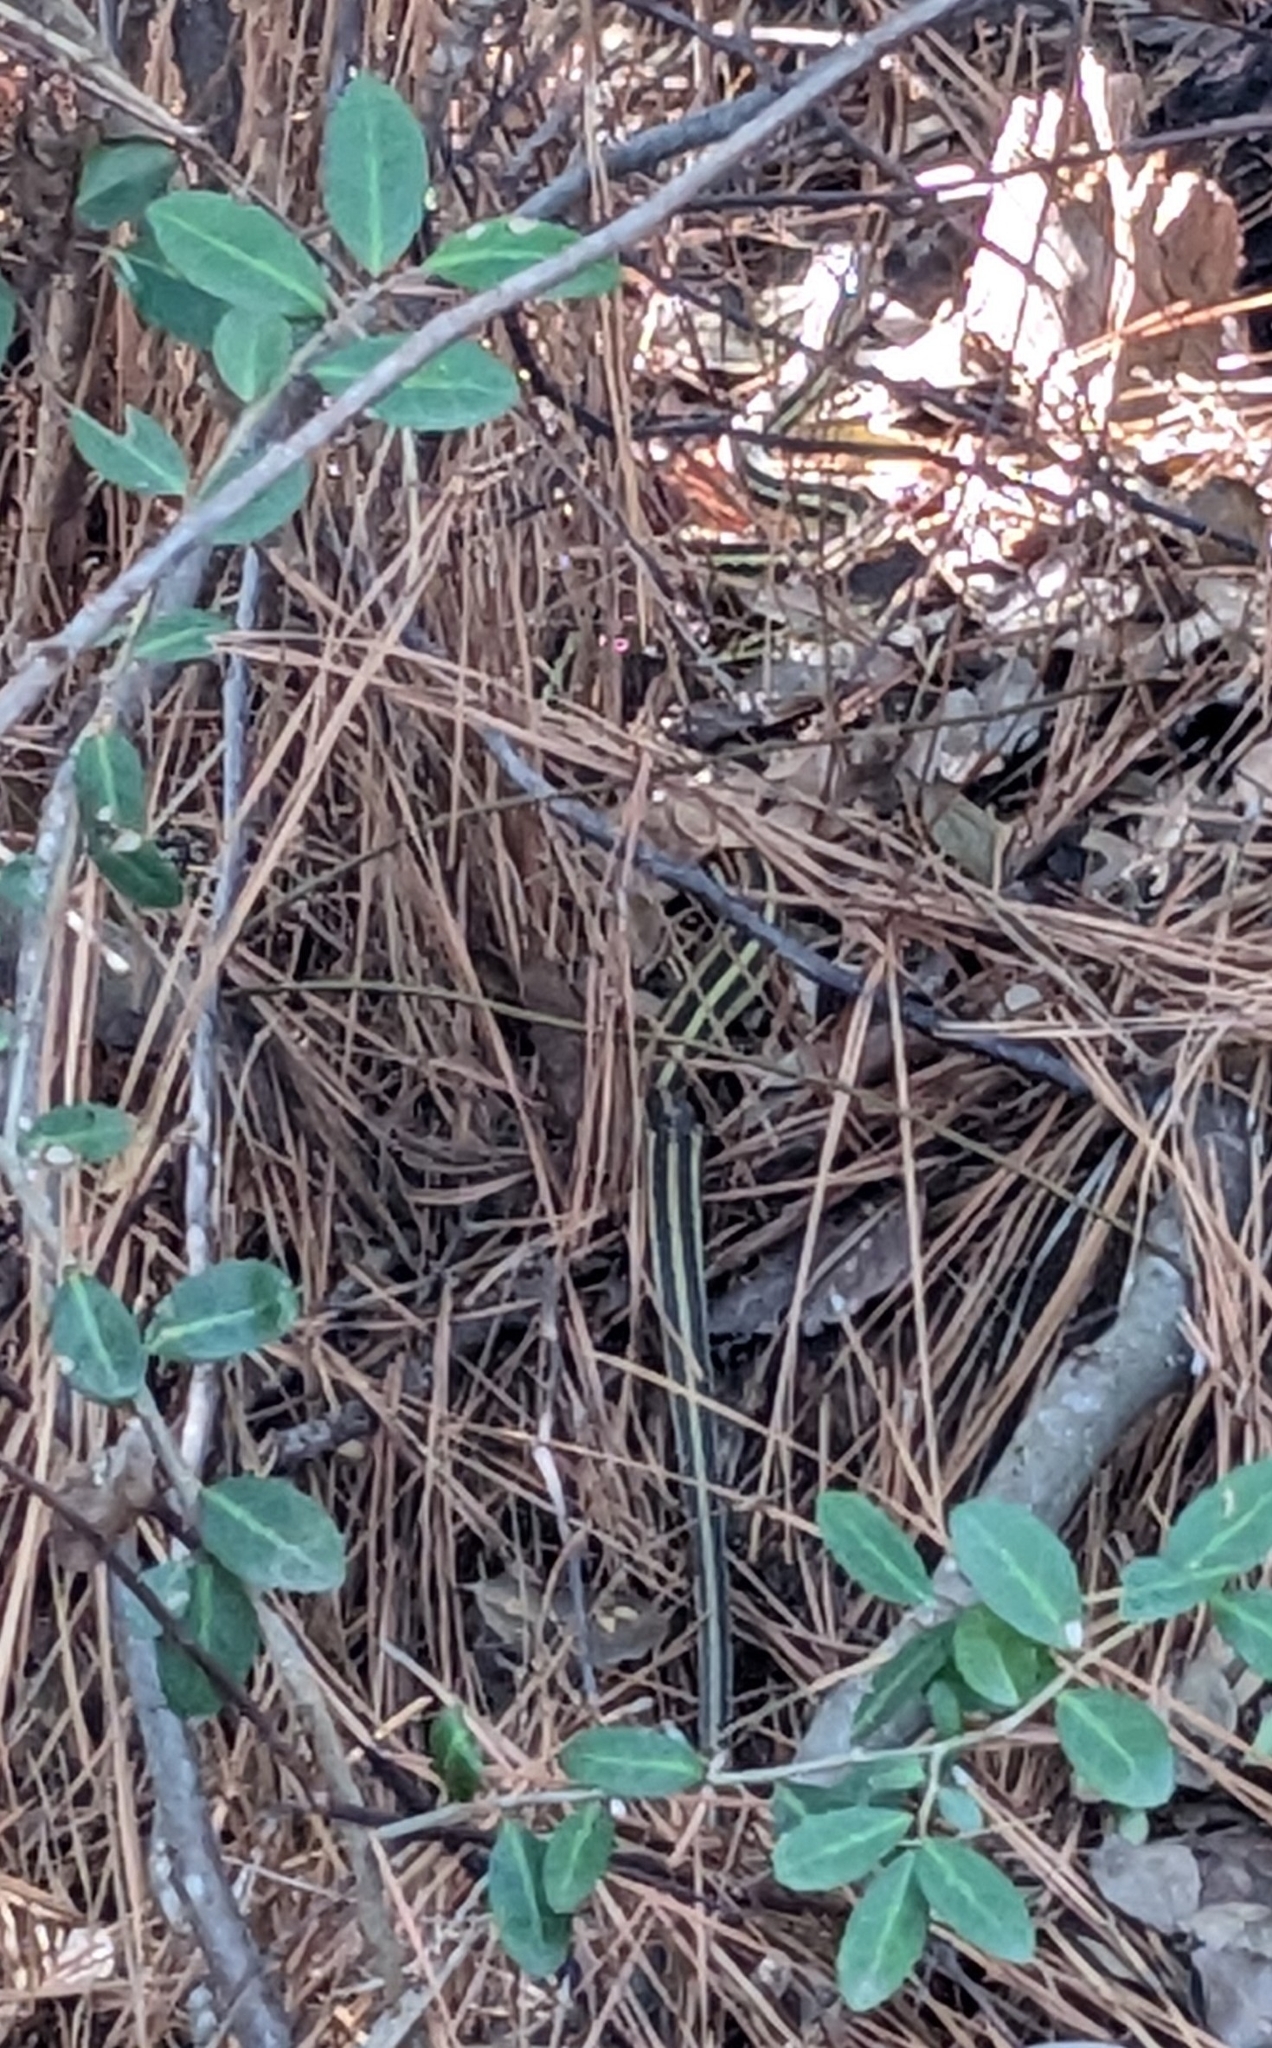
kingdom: Animalia
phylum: Chordata
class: Squamata
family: Colubridae
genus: Thamnophis
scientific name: Thamnophis proximus
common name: Western ribbon snake
